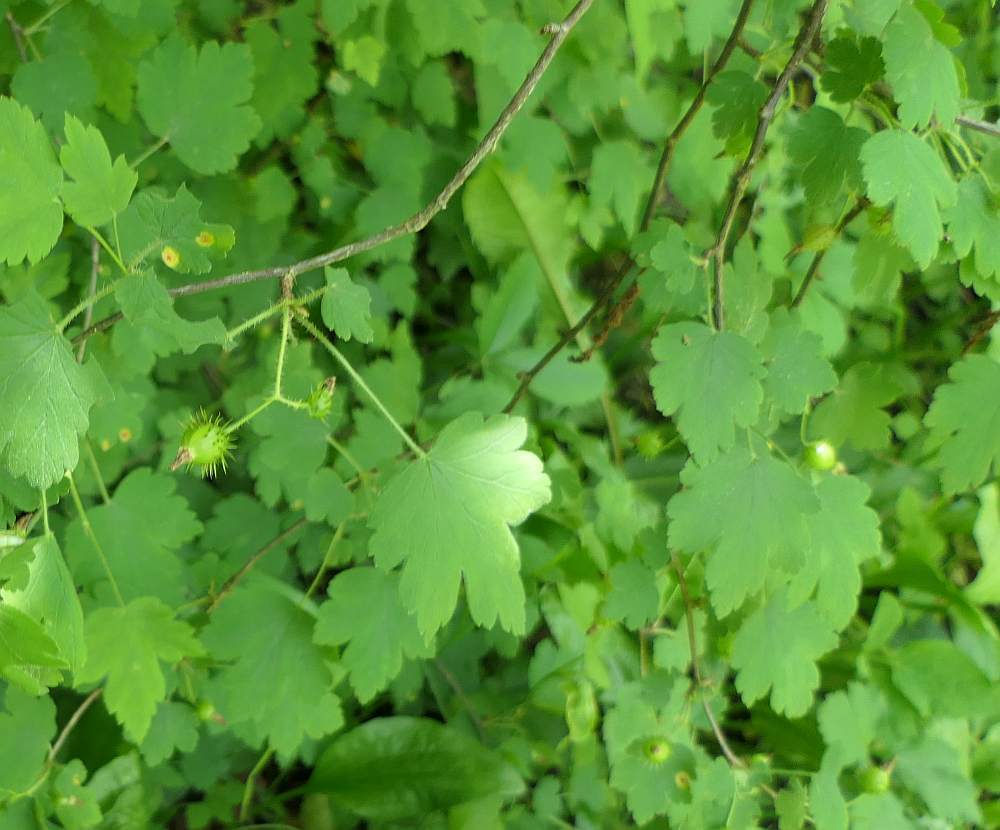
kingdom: Plantae
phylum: Tracheophyta
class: Magnoliopsida
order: Saxifragales
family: Grossulariaceae
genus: Ribes
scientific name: Ribes cynosbati
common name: American gooseberry
